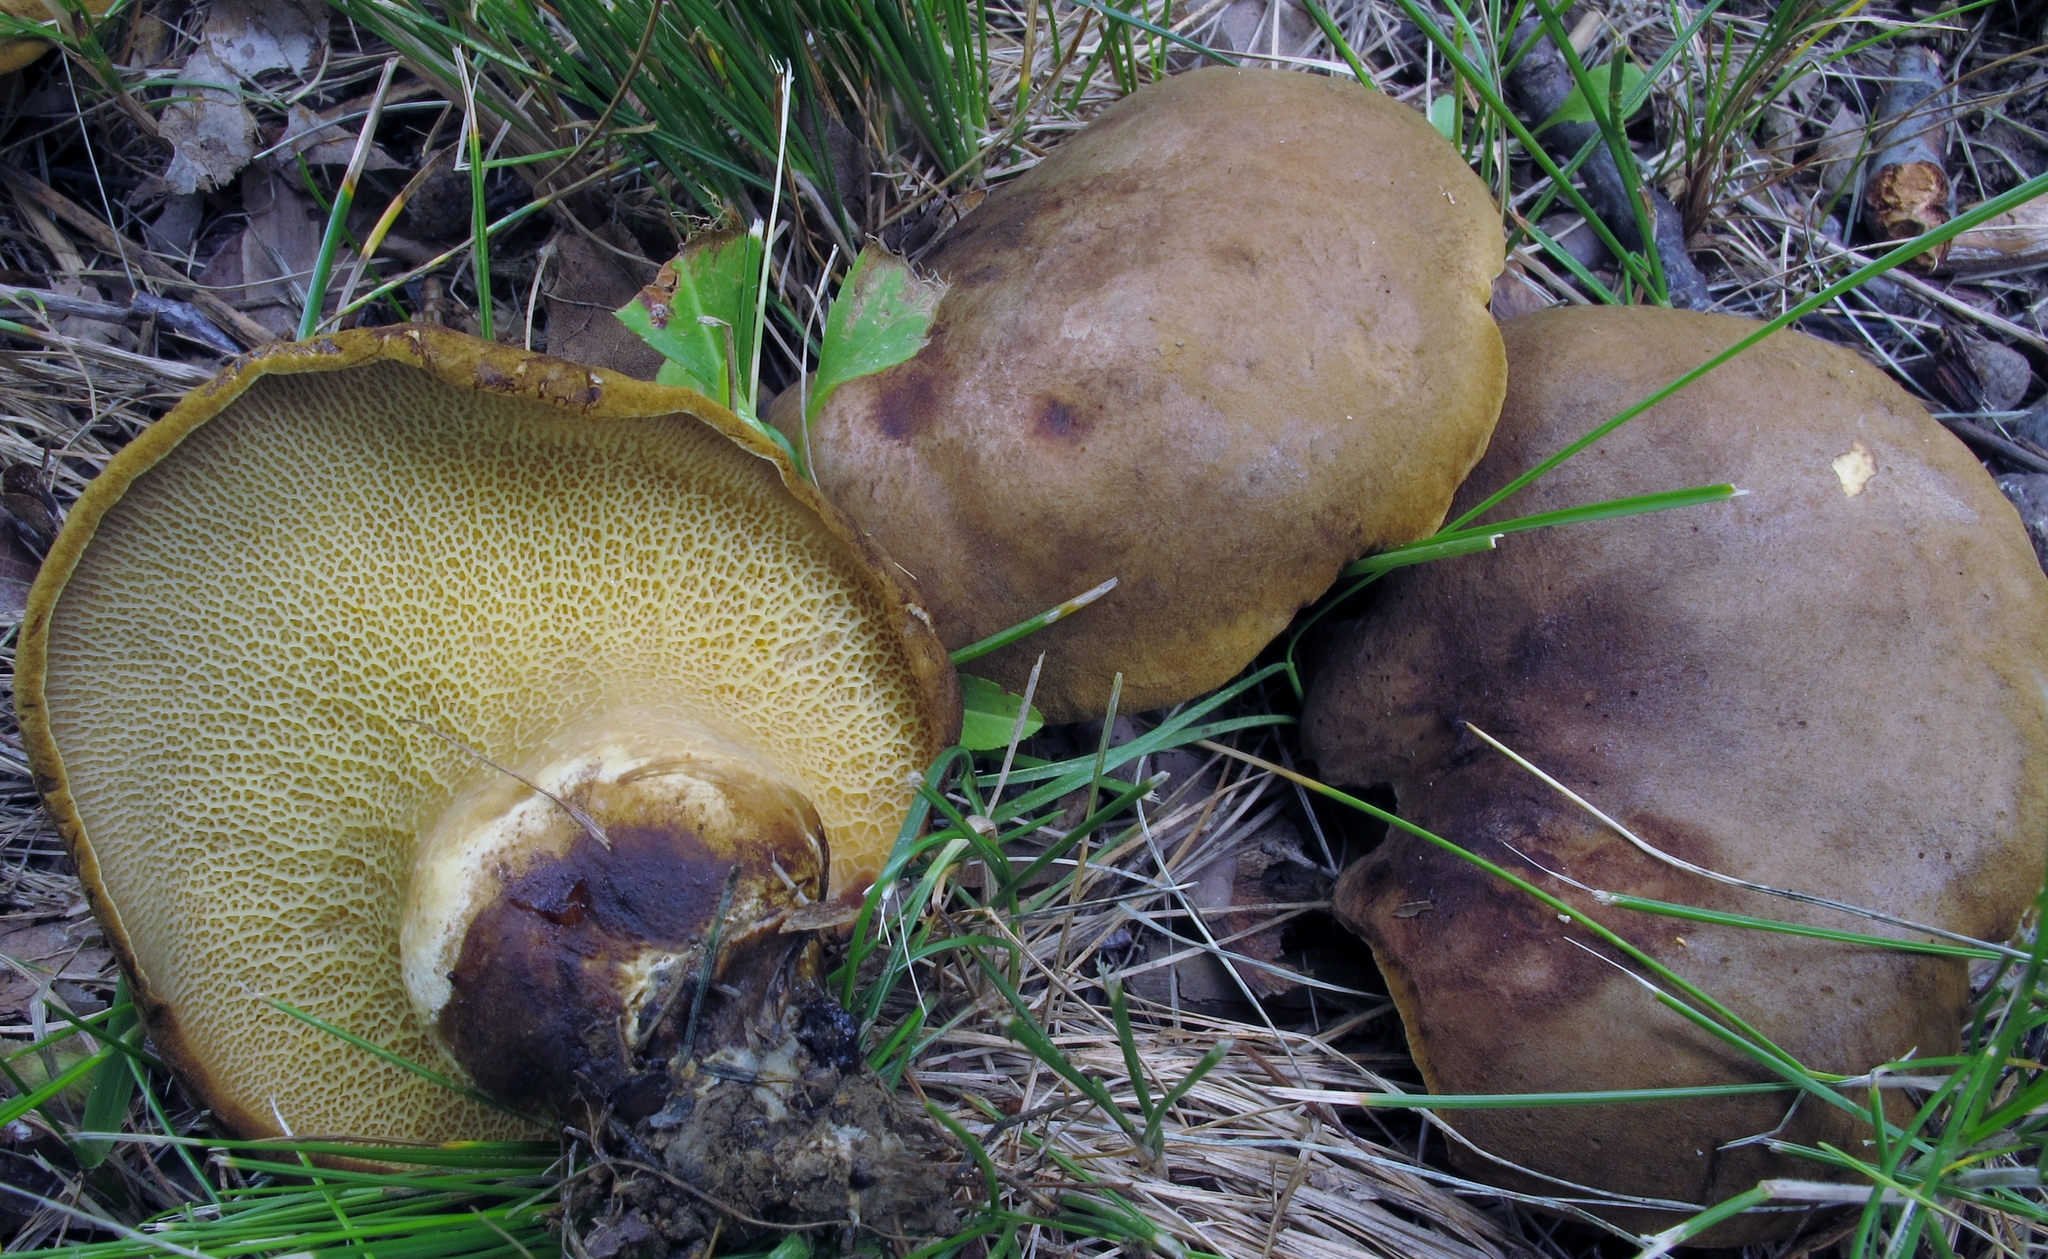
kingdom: Fungi
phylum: Basidiomycota
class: Agaricomycetes
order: Boletales
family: Boletinellaceae
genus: Boletinellus
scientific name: Boletinellus merulioides
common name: Ash tree bolete
